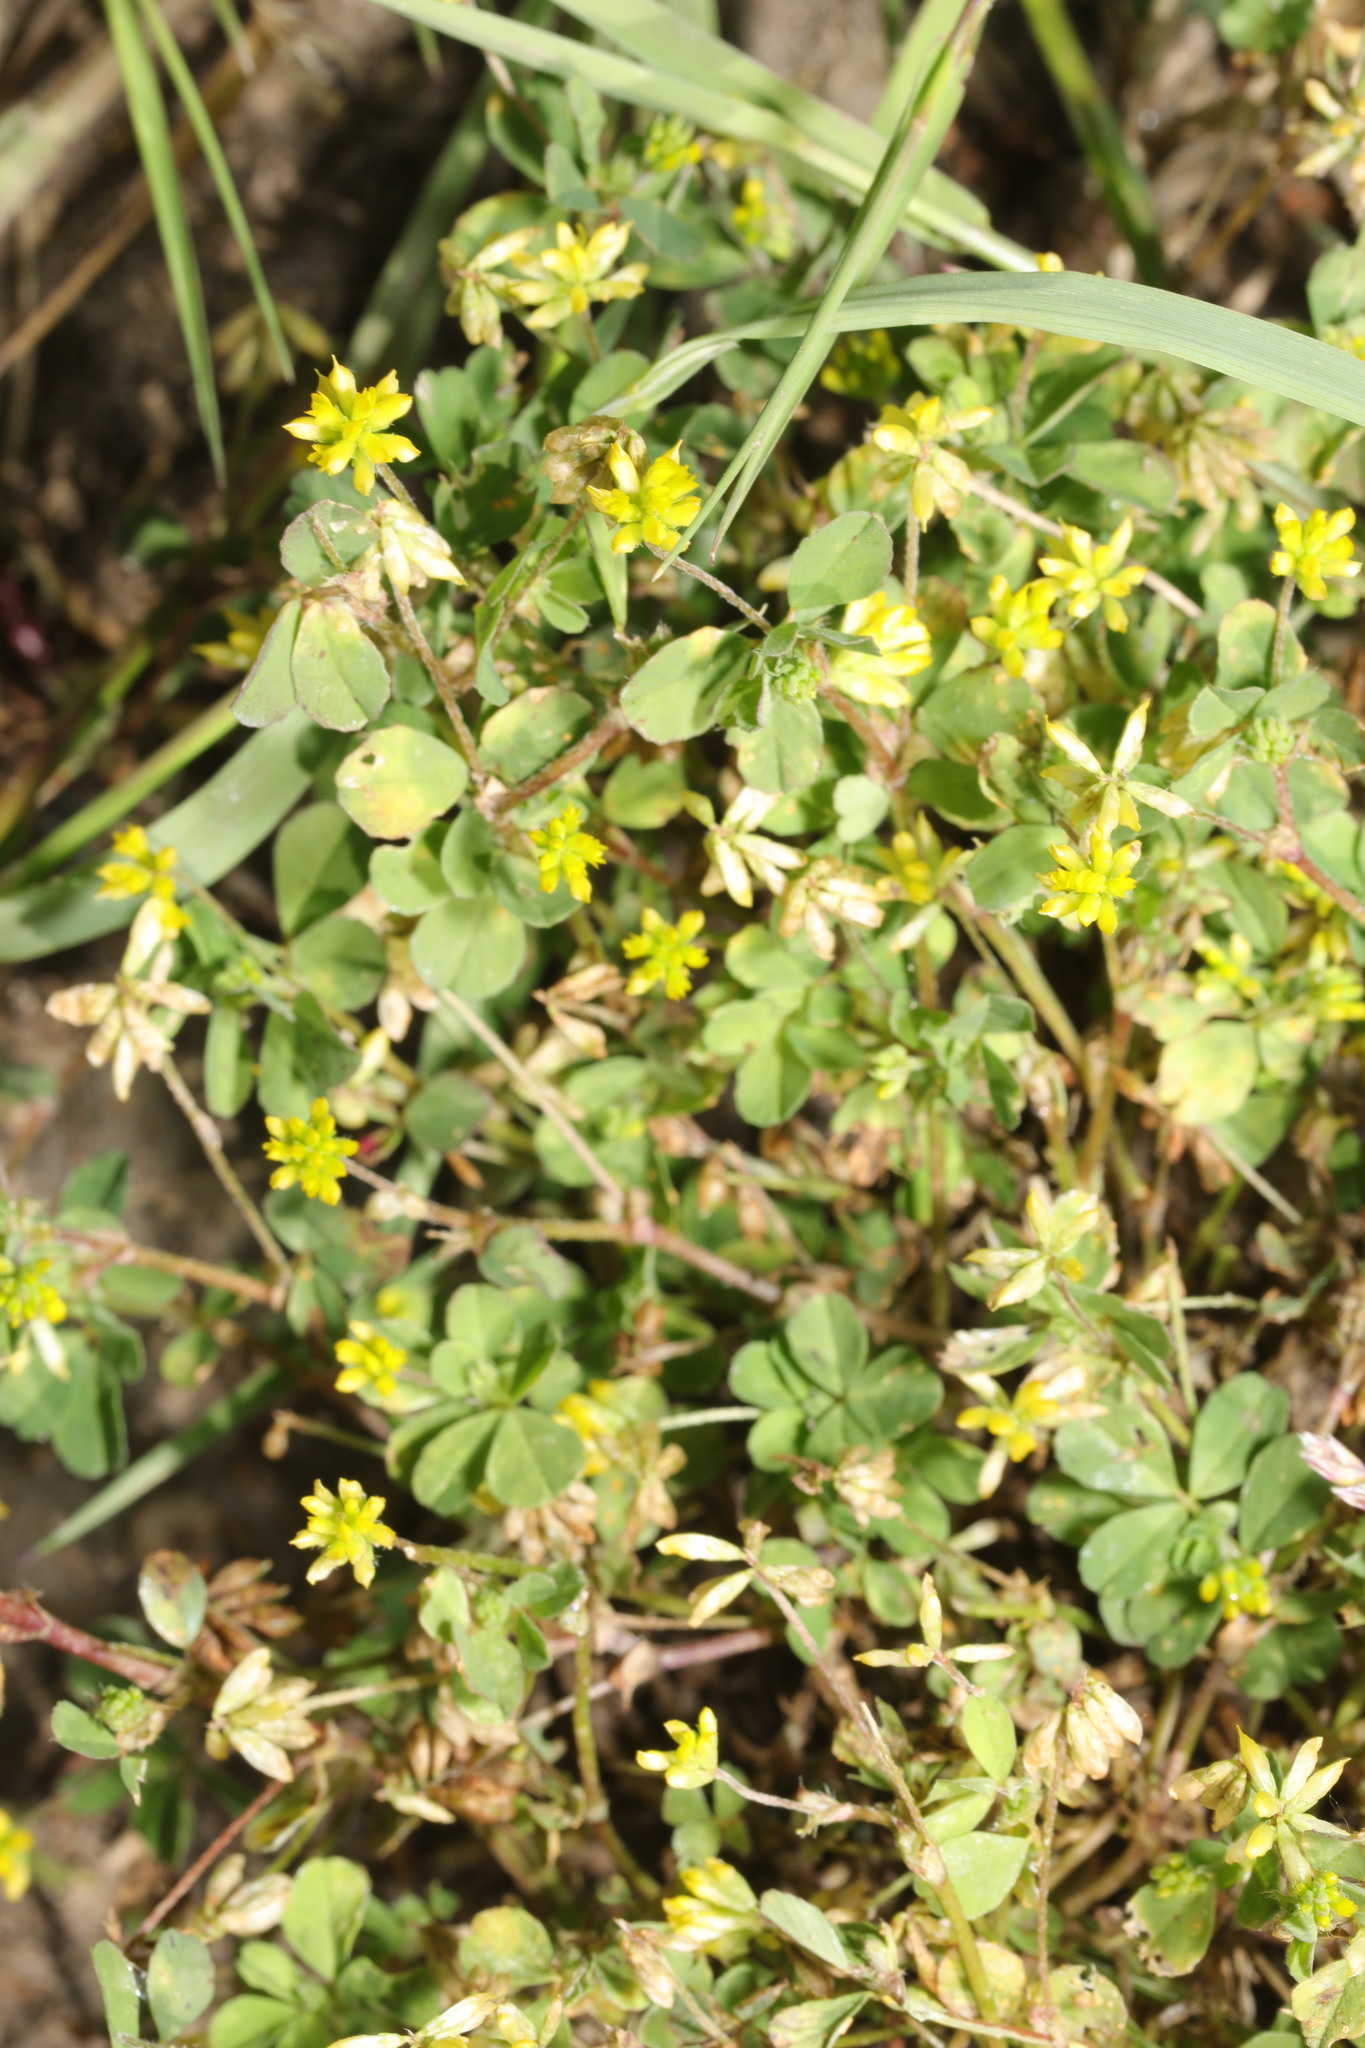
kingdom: Plantae
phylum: Tracheophyta
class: Magnoliopsida
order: Fabales
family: Fabaceae
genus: Trifolium
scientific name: Trifolium dubium
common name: Suckling clover
